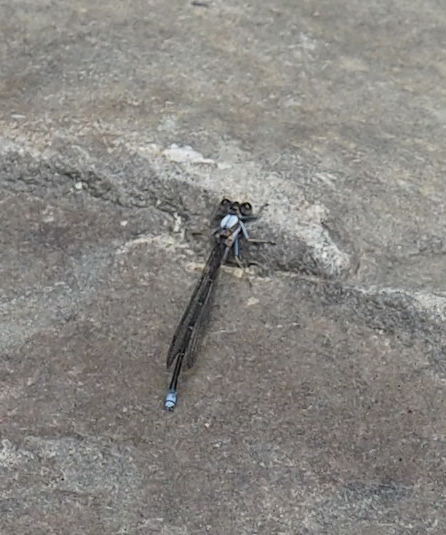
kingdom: Animalia
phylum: Arthropoda
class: Insecta
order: Odonata
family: Coenagrionidae
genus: Argia
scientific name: Argia moesta
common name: Powdered dancer
